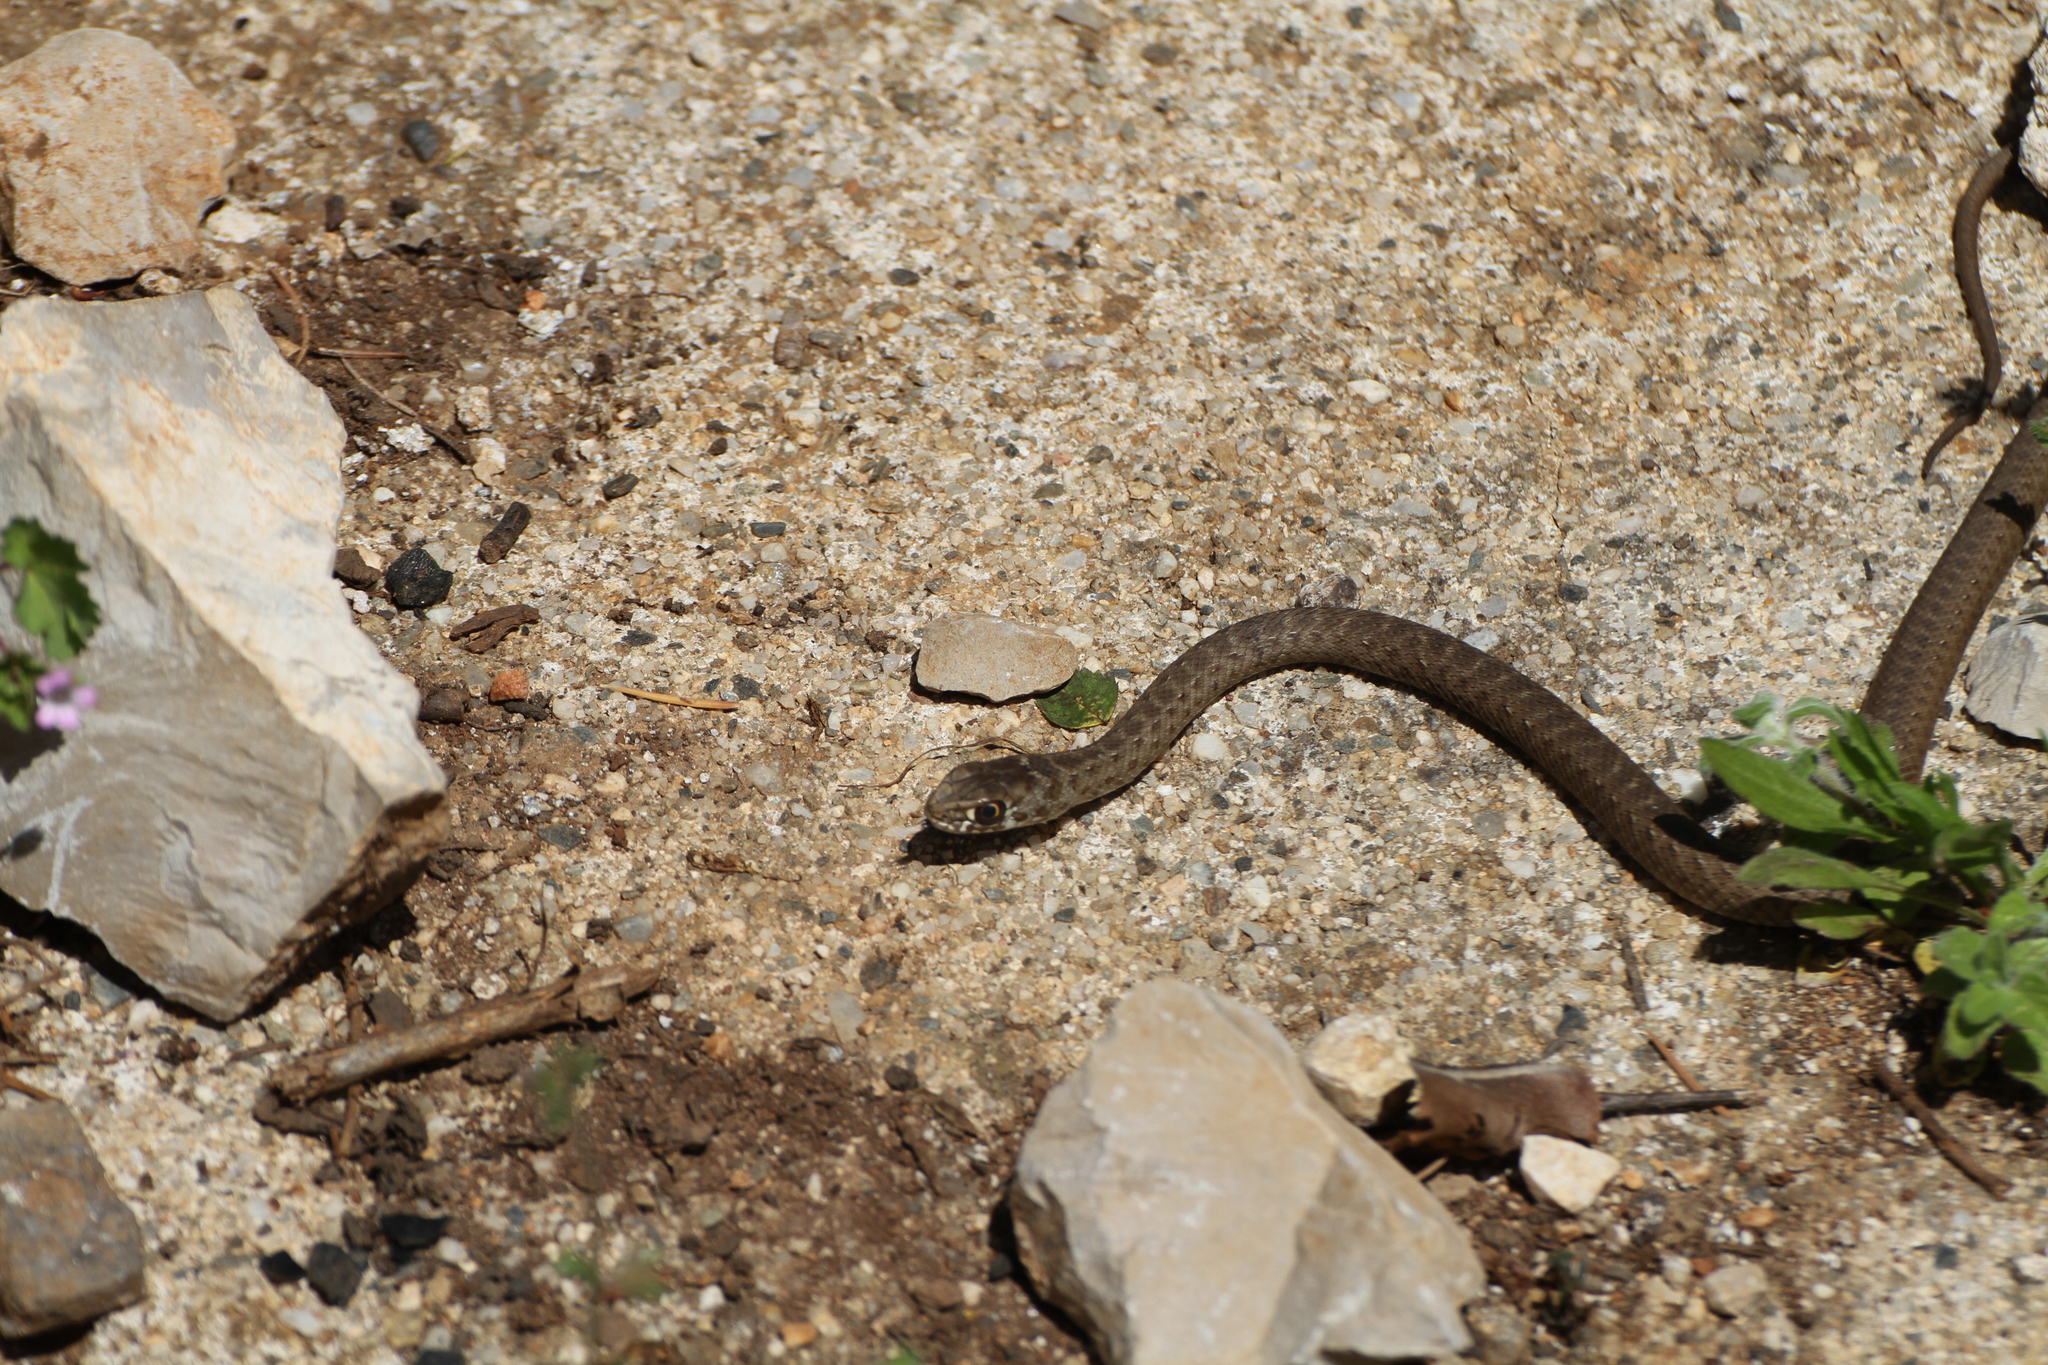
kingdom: Animalia
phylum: Chordata
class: Squamata
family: Psammophiidae
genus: Malpolon
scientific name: Malpolon monspessulanus
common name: Montpellier snake
